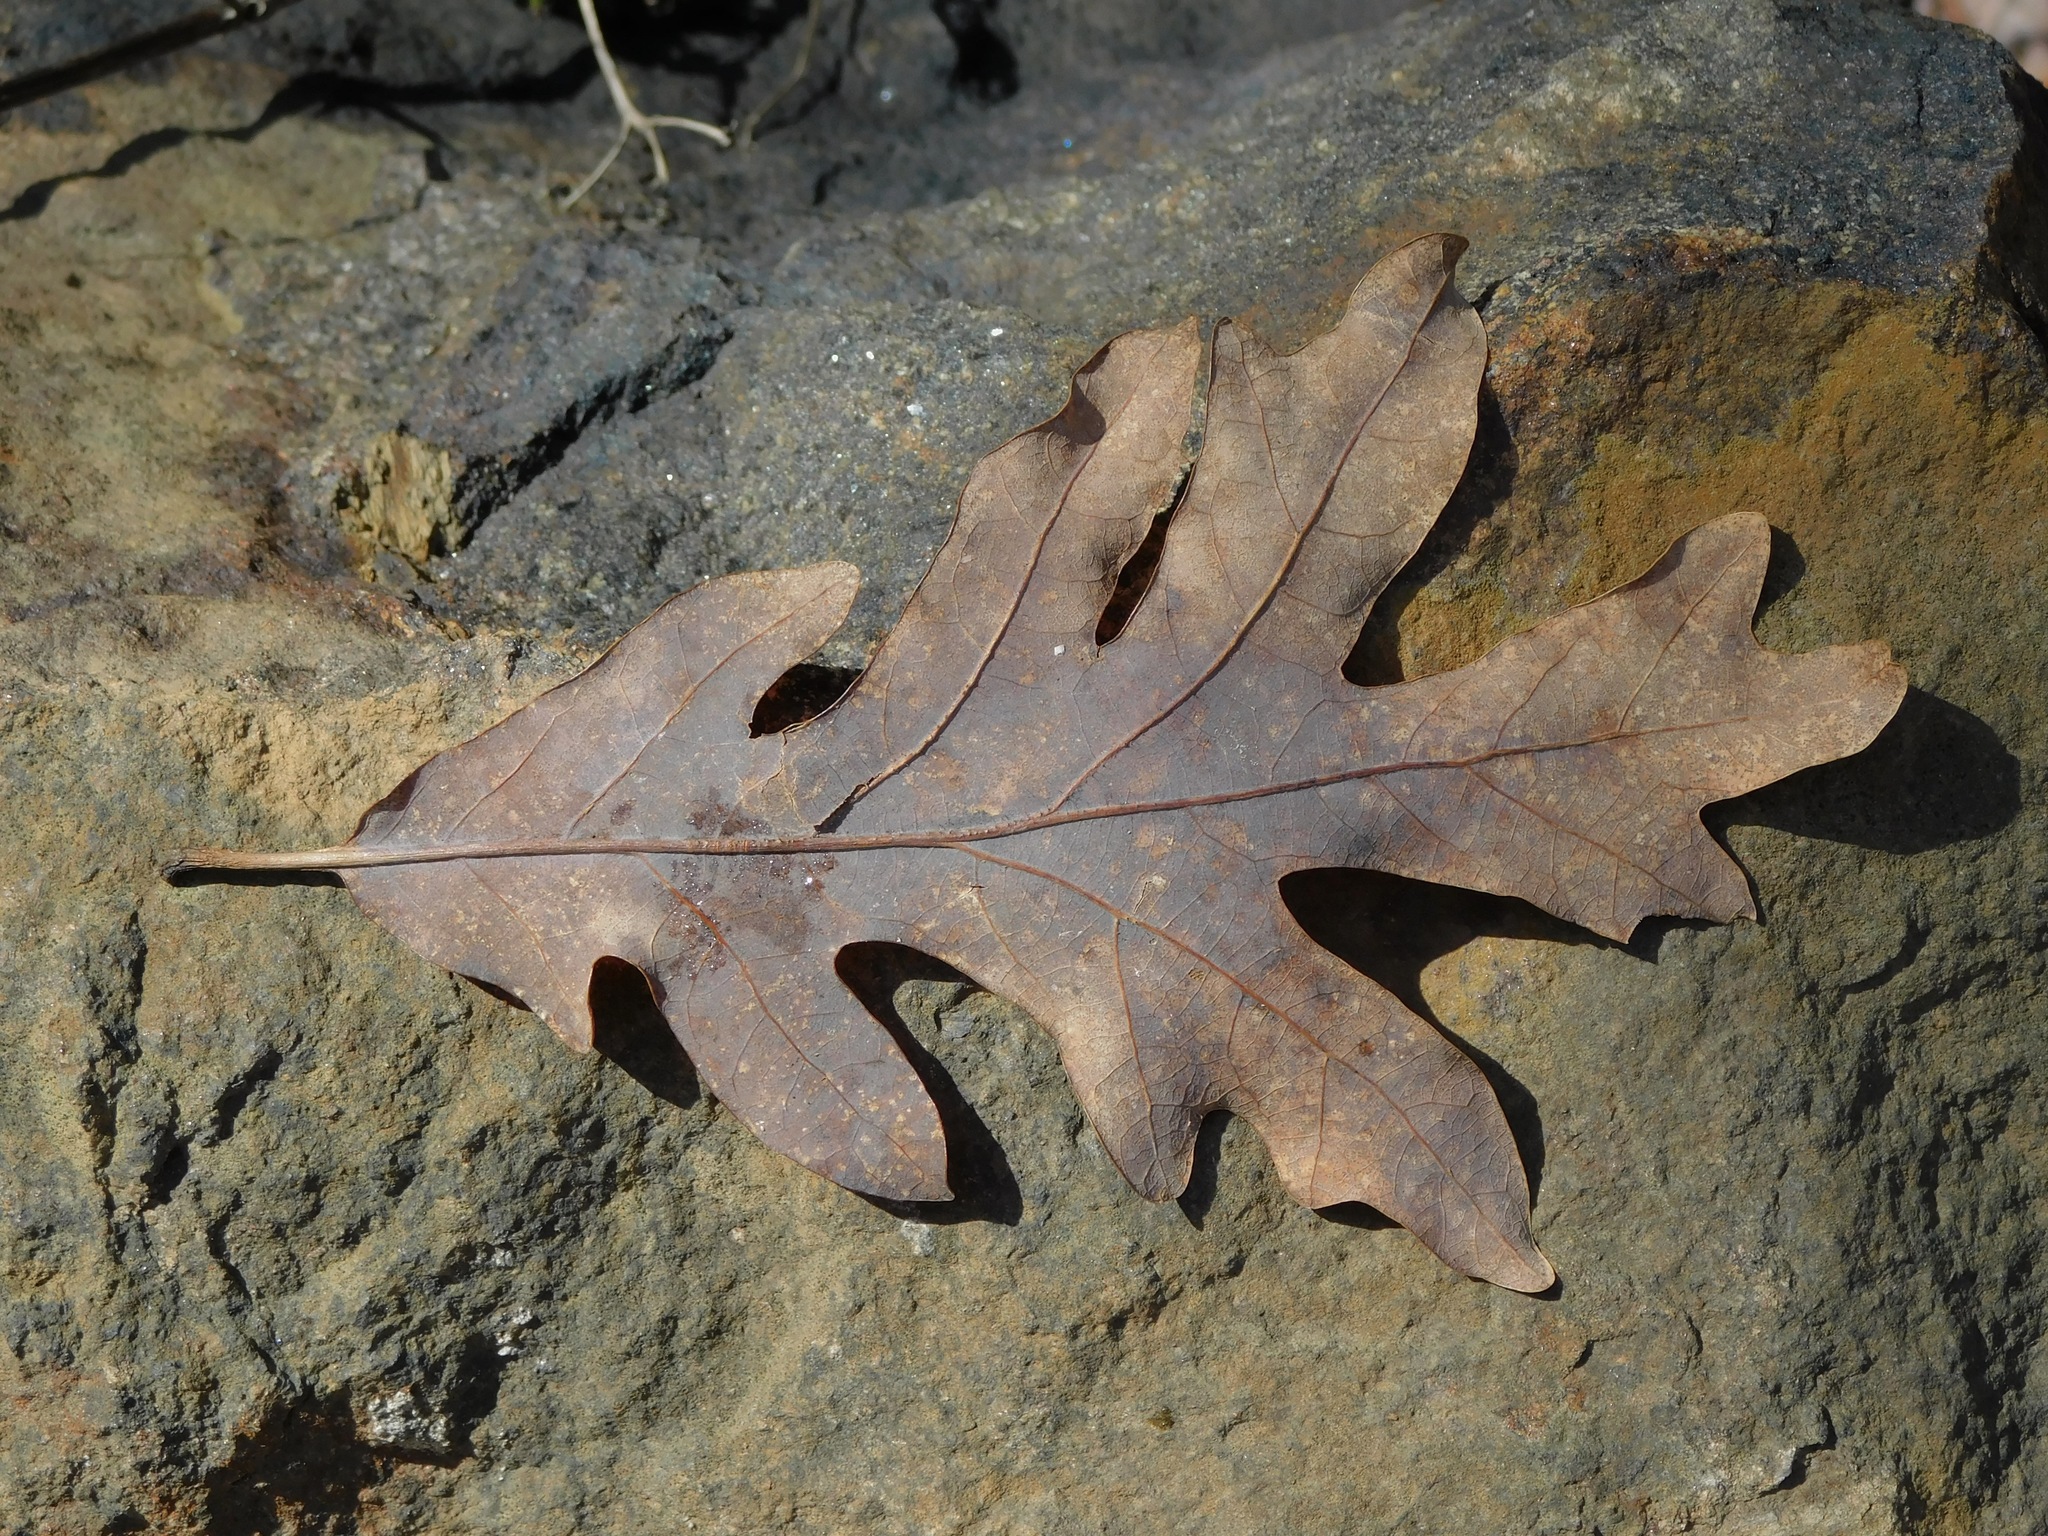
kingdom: Plantae
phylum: Tracheophyta
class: Magnoliopsida
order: Fagales
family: Fagaceae
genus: Quercus
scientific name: Quercus alba
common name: White oak
